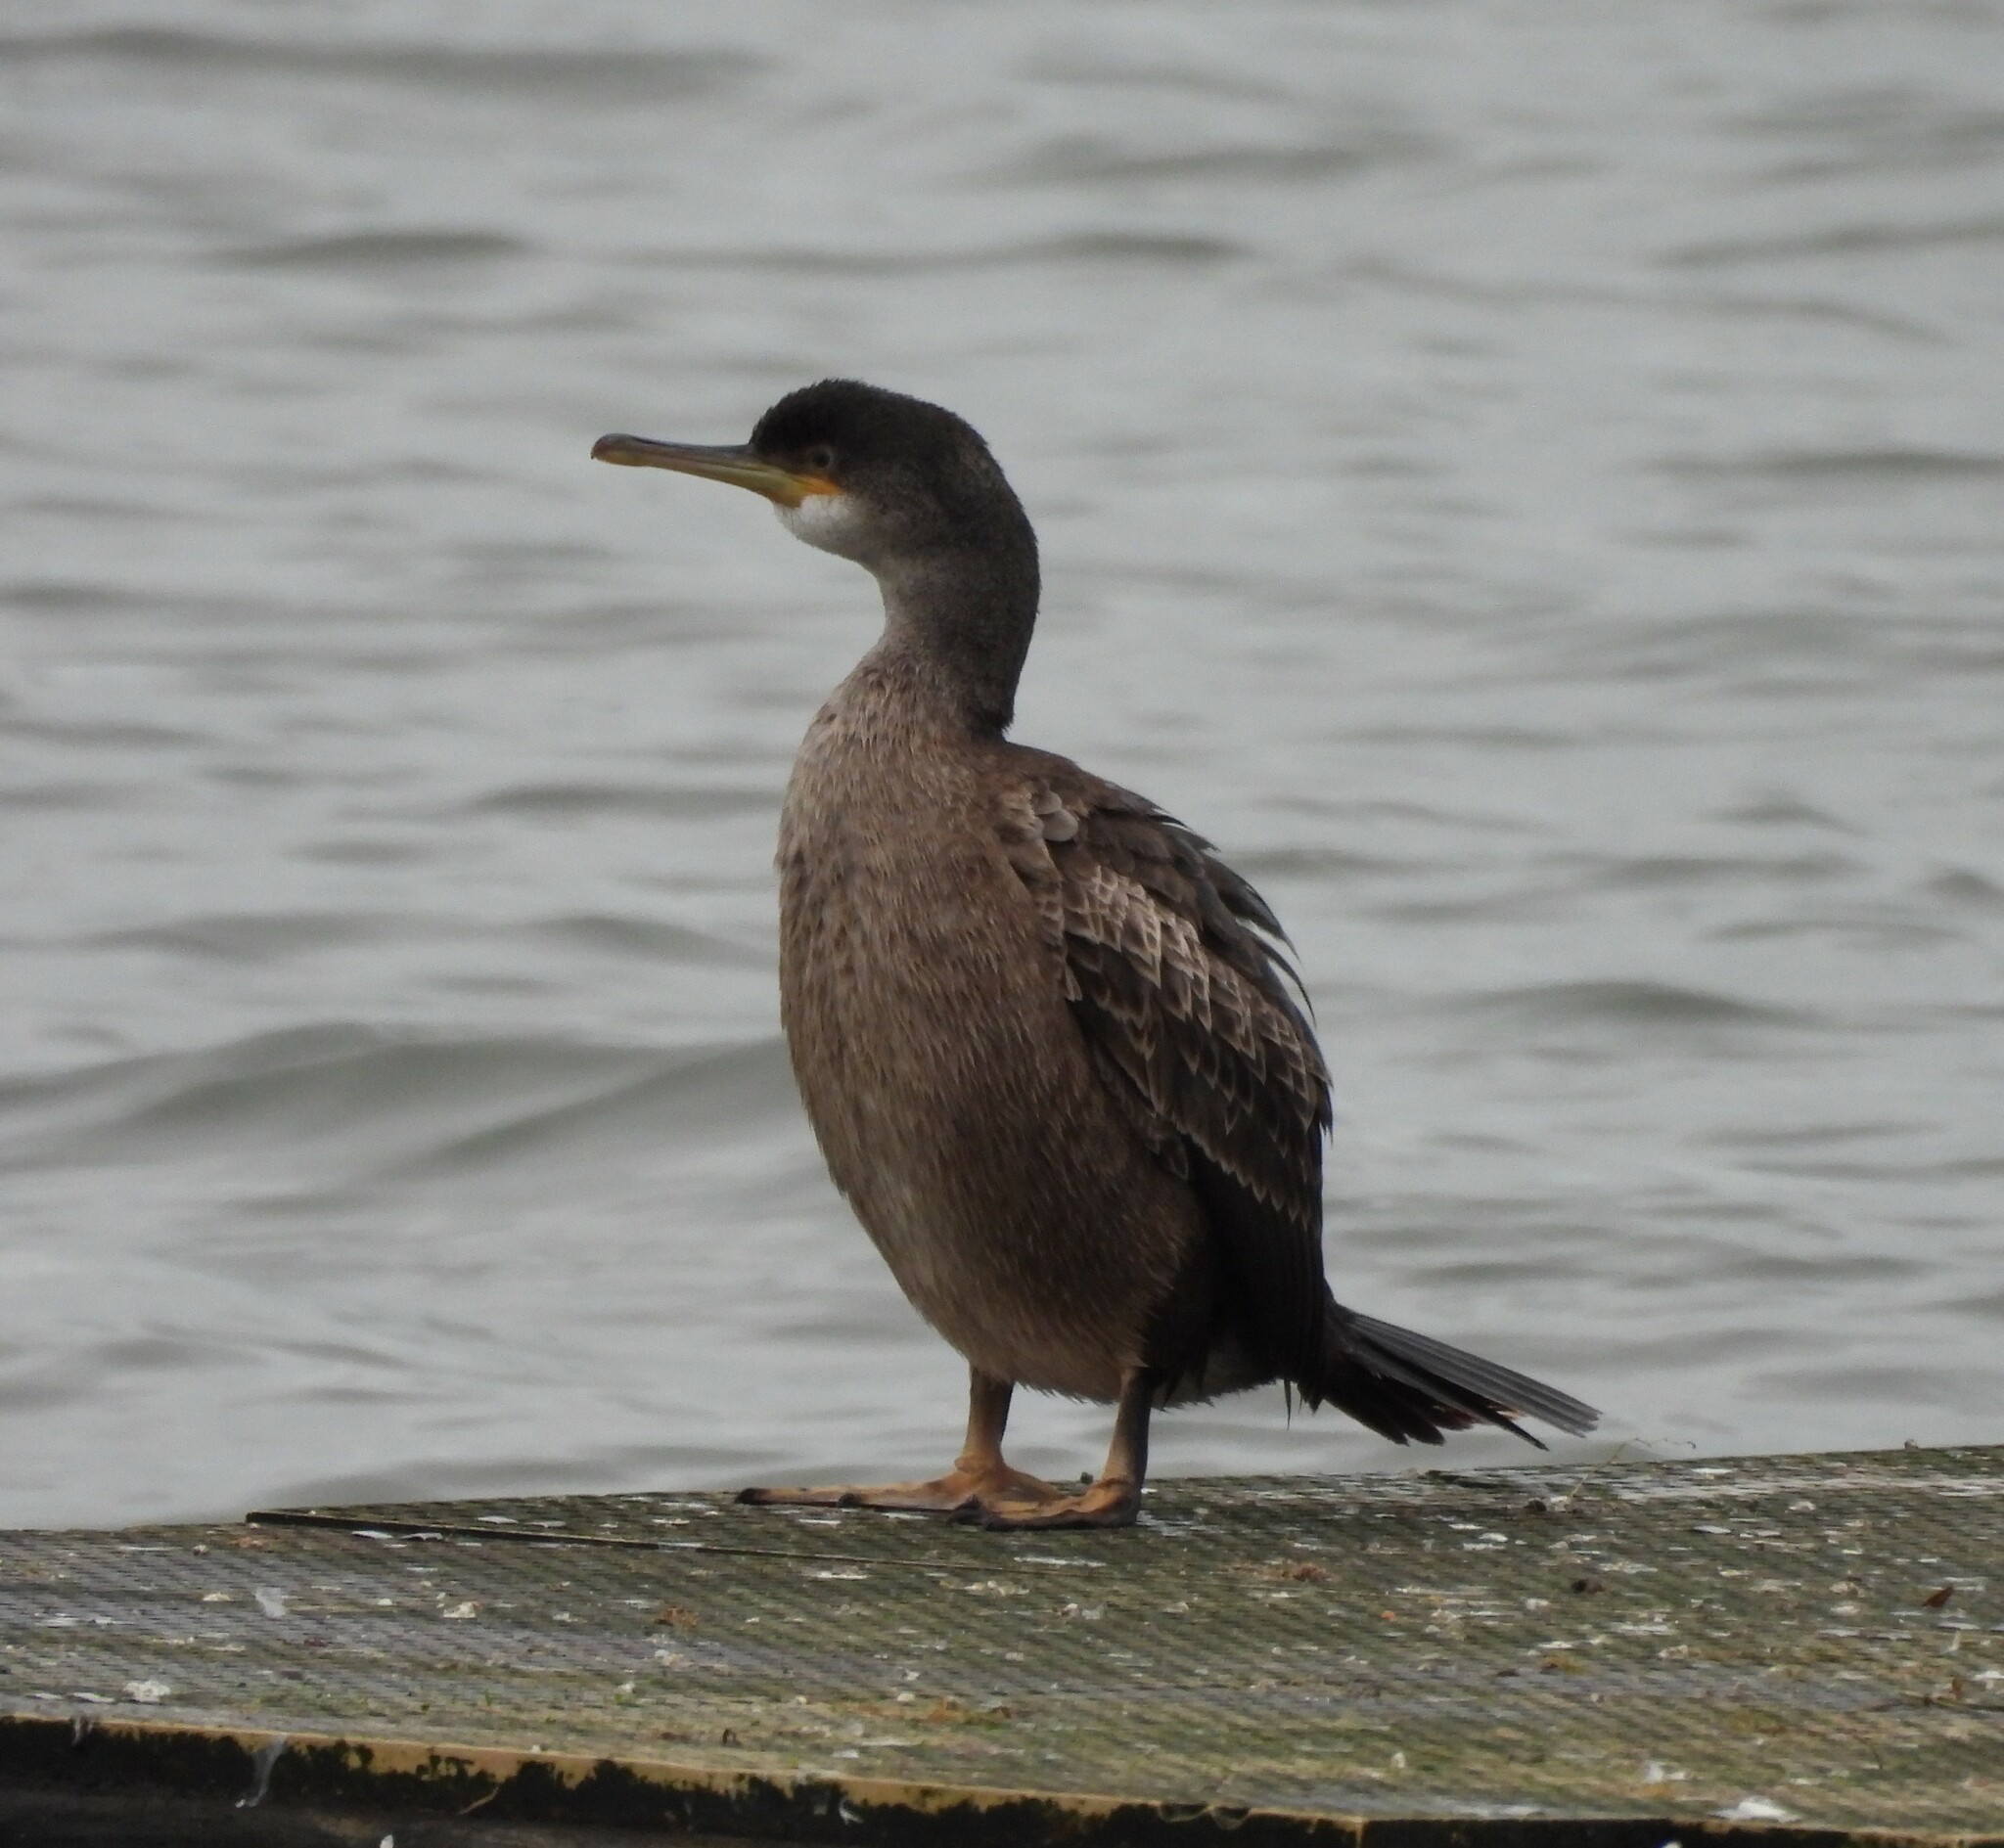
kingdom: Animalia
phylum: Chordata
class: Aves
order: Suliformes
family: Phalacrocoracidae
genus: Phalacrocorax
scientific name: Phalacrocorax aristotelis
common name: European shag
